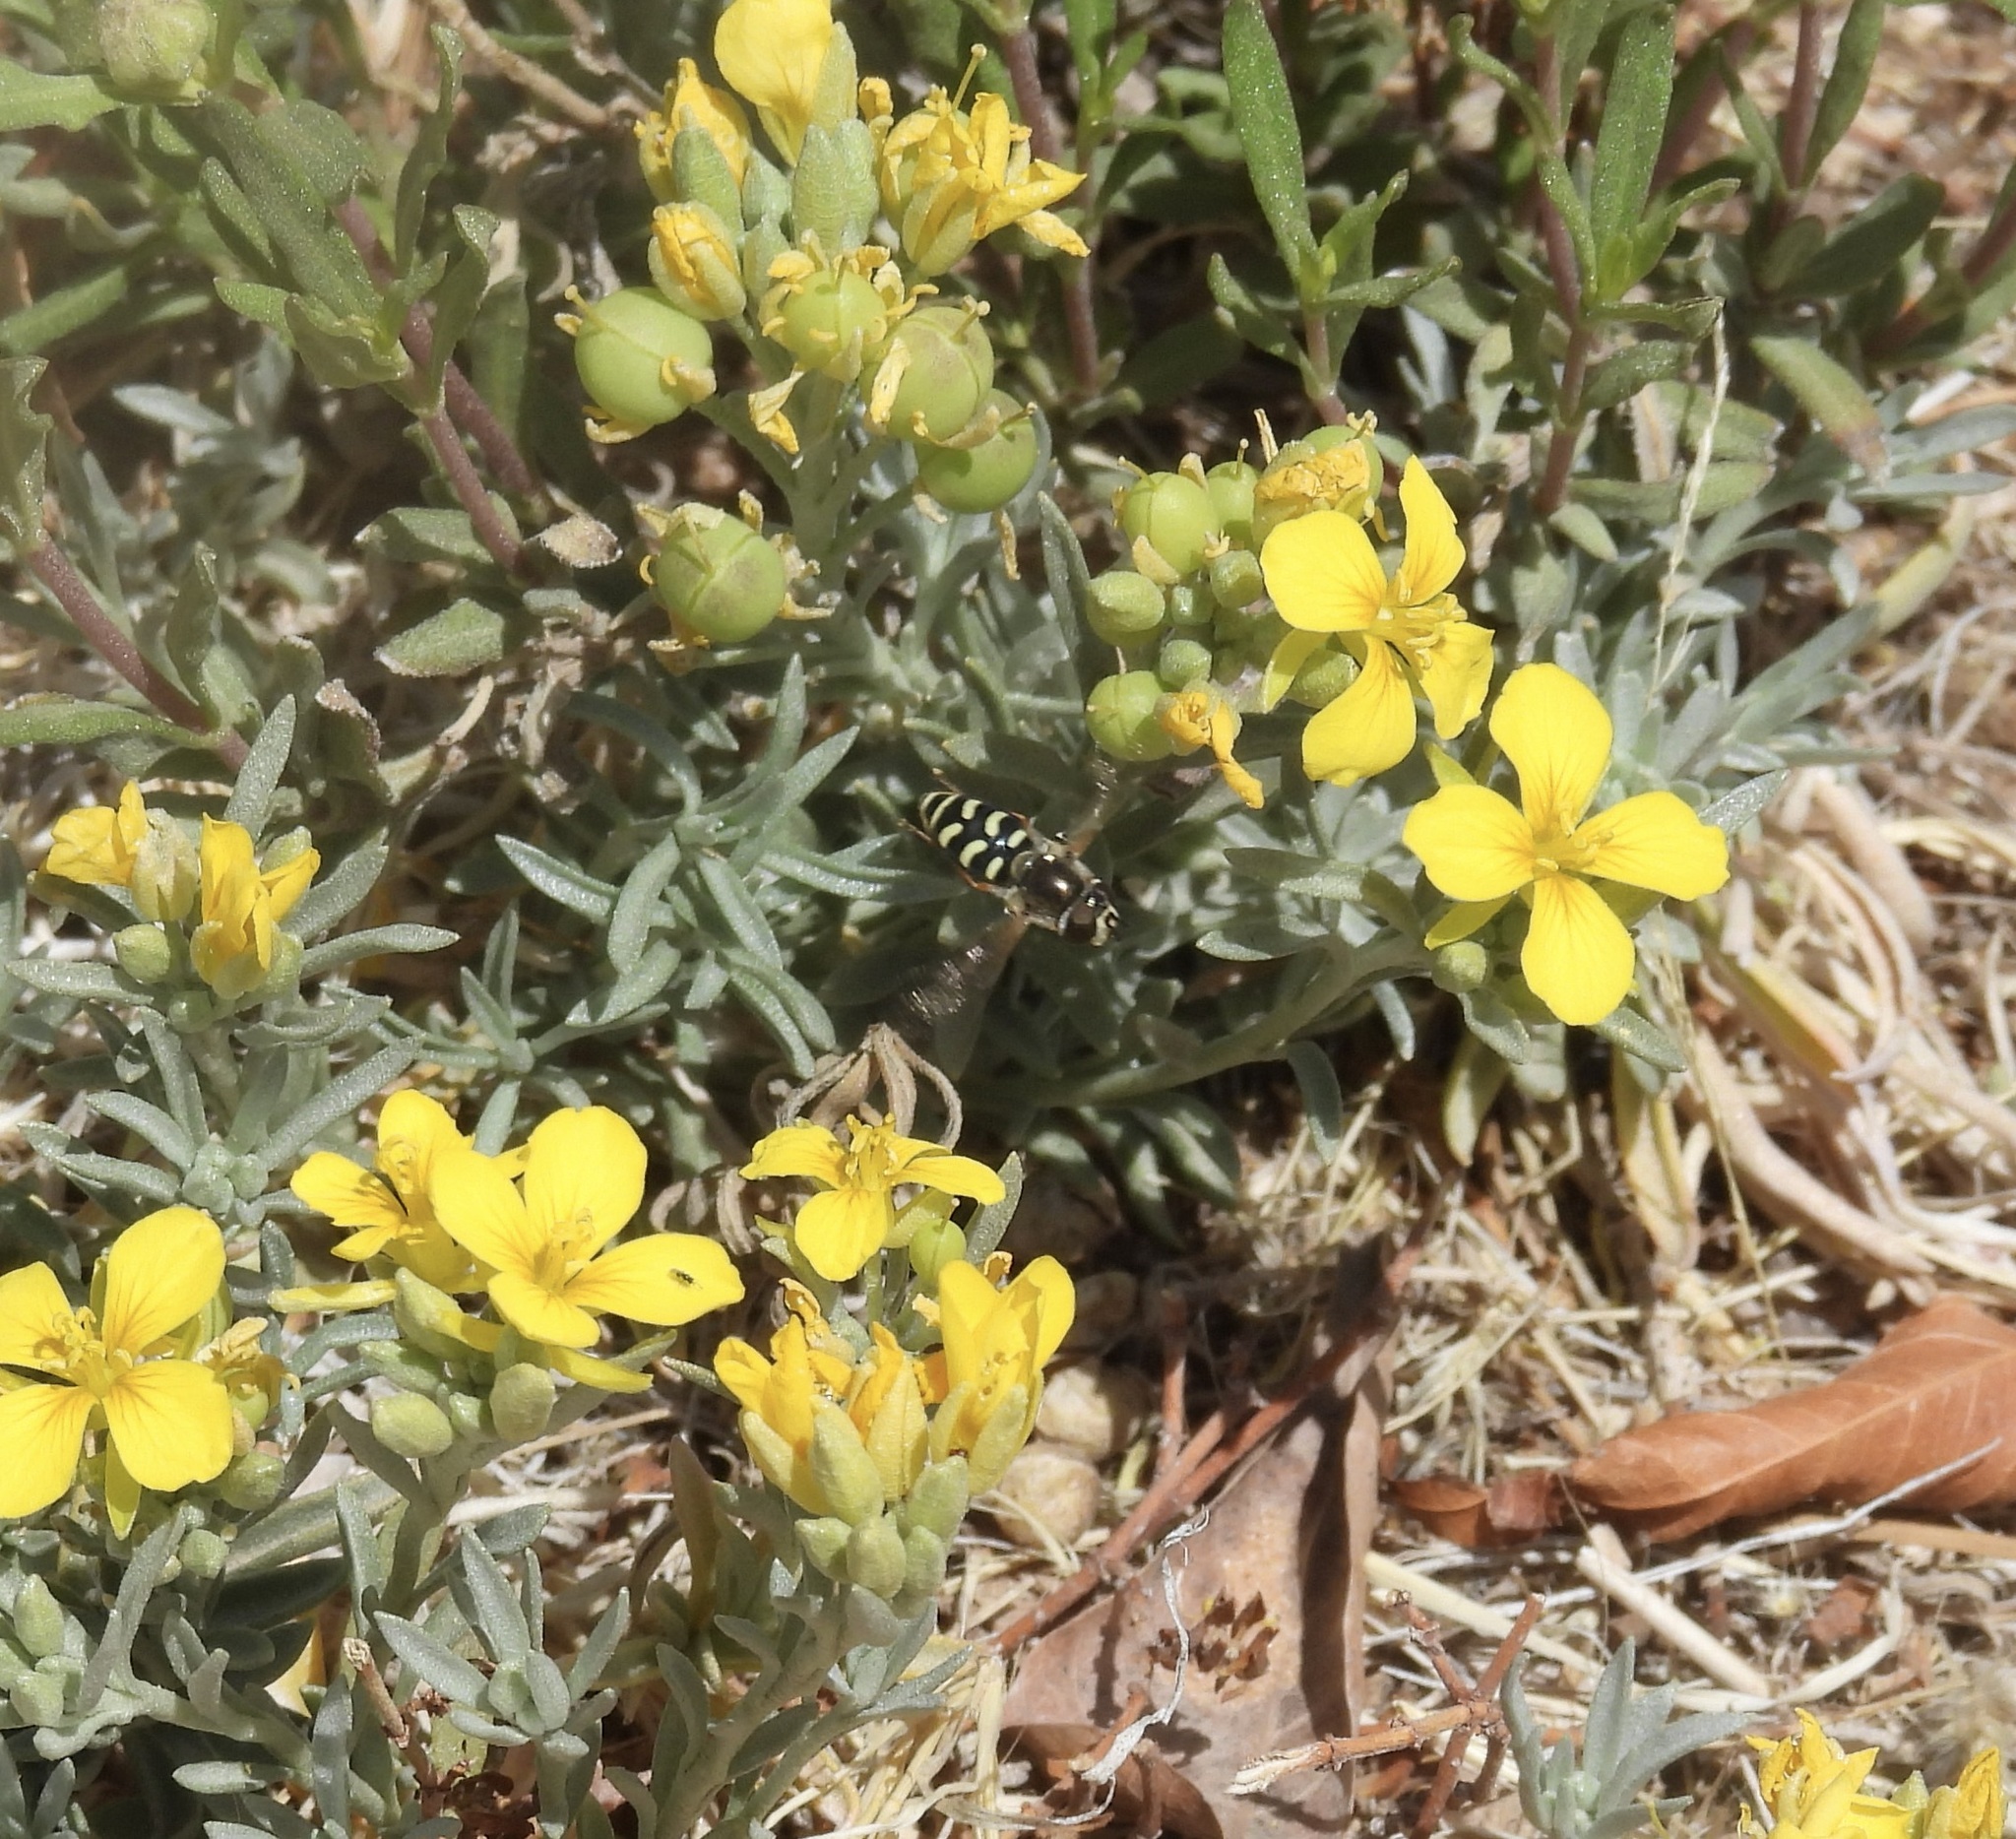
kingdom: Animalia
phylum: Arthropoda
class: Insecta
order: Diptera
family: Syrphidae
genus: Eupeodes
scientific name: Eupeodes volucris
